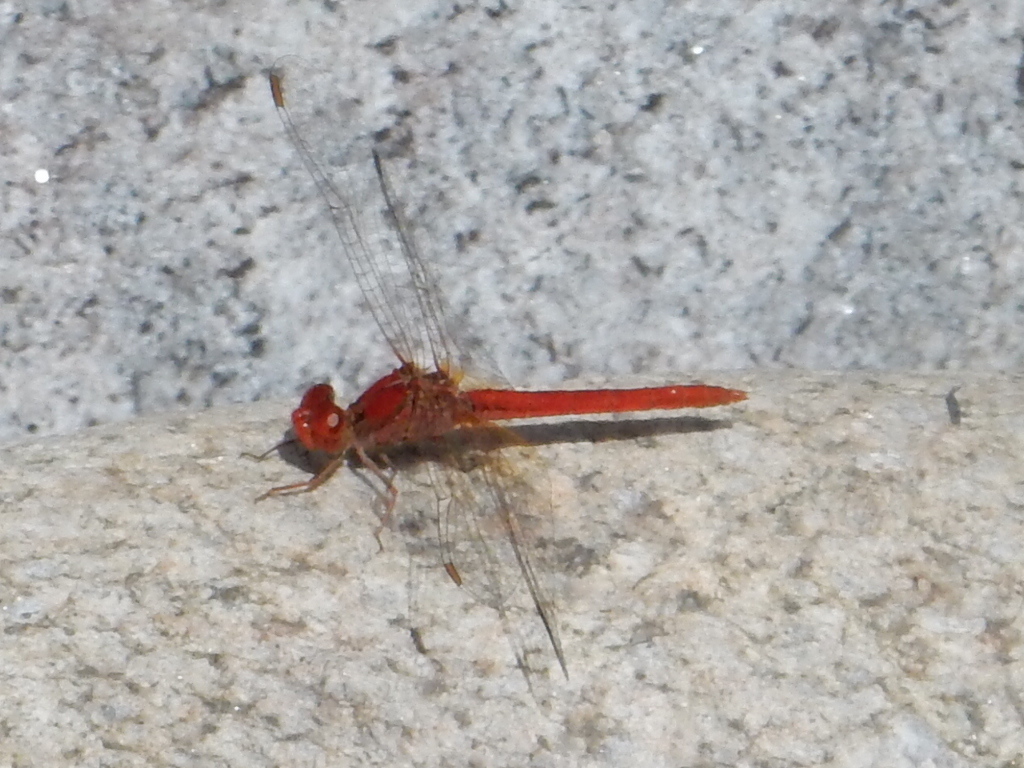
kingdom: Animalia
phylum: Arthropoda
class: Insecta
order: Odonata
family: Libellulidae
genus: Diplacodes
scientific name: Diplacodes haematodes
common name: Scarlet percher
